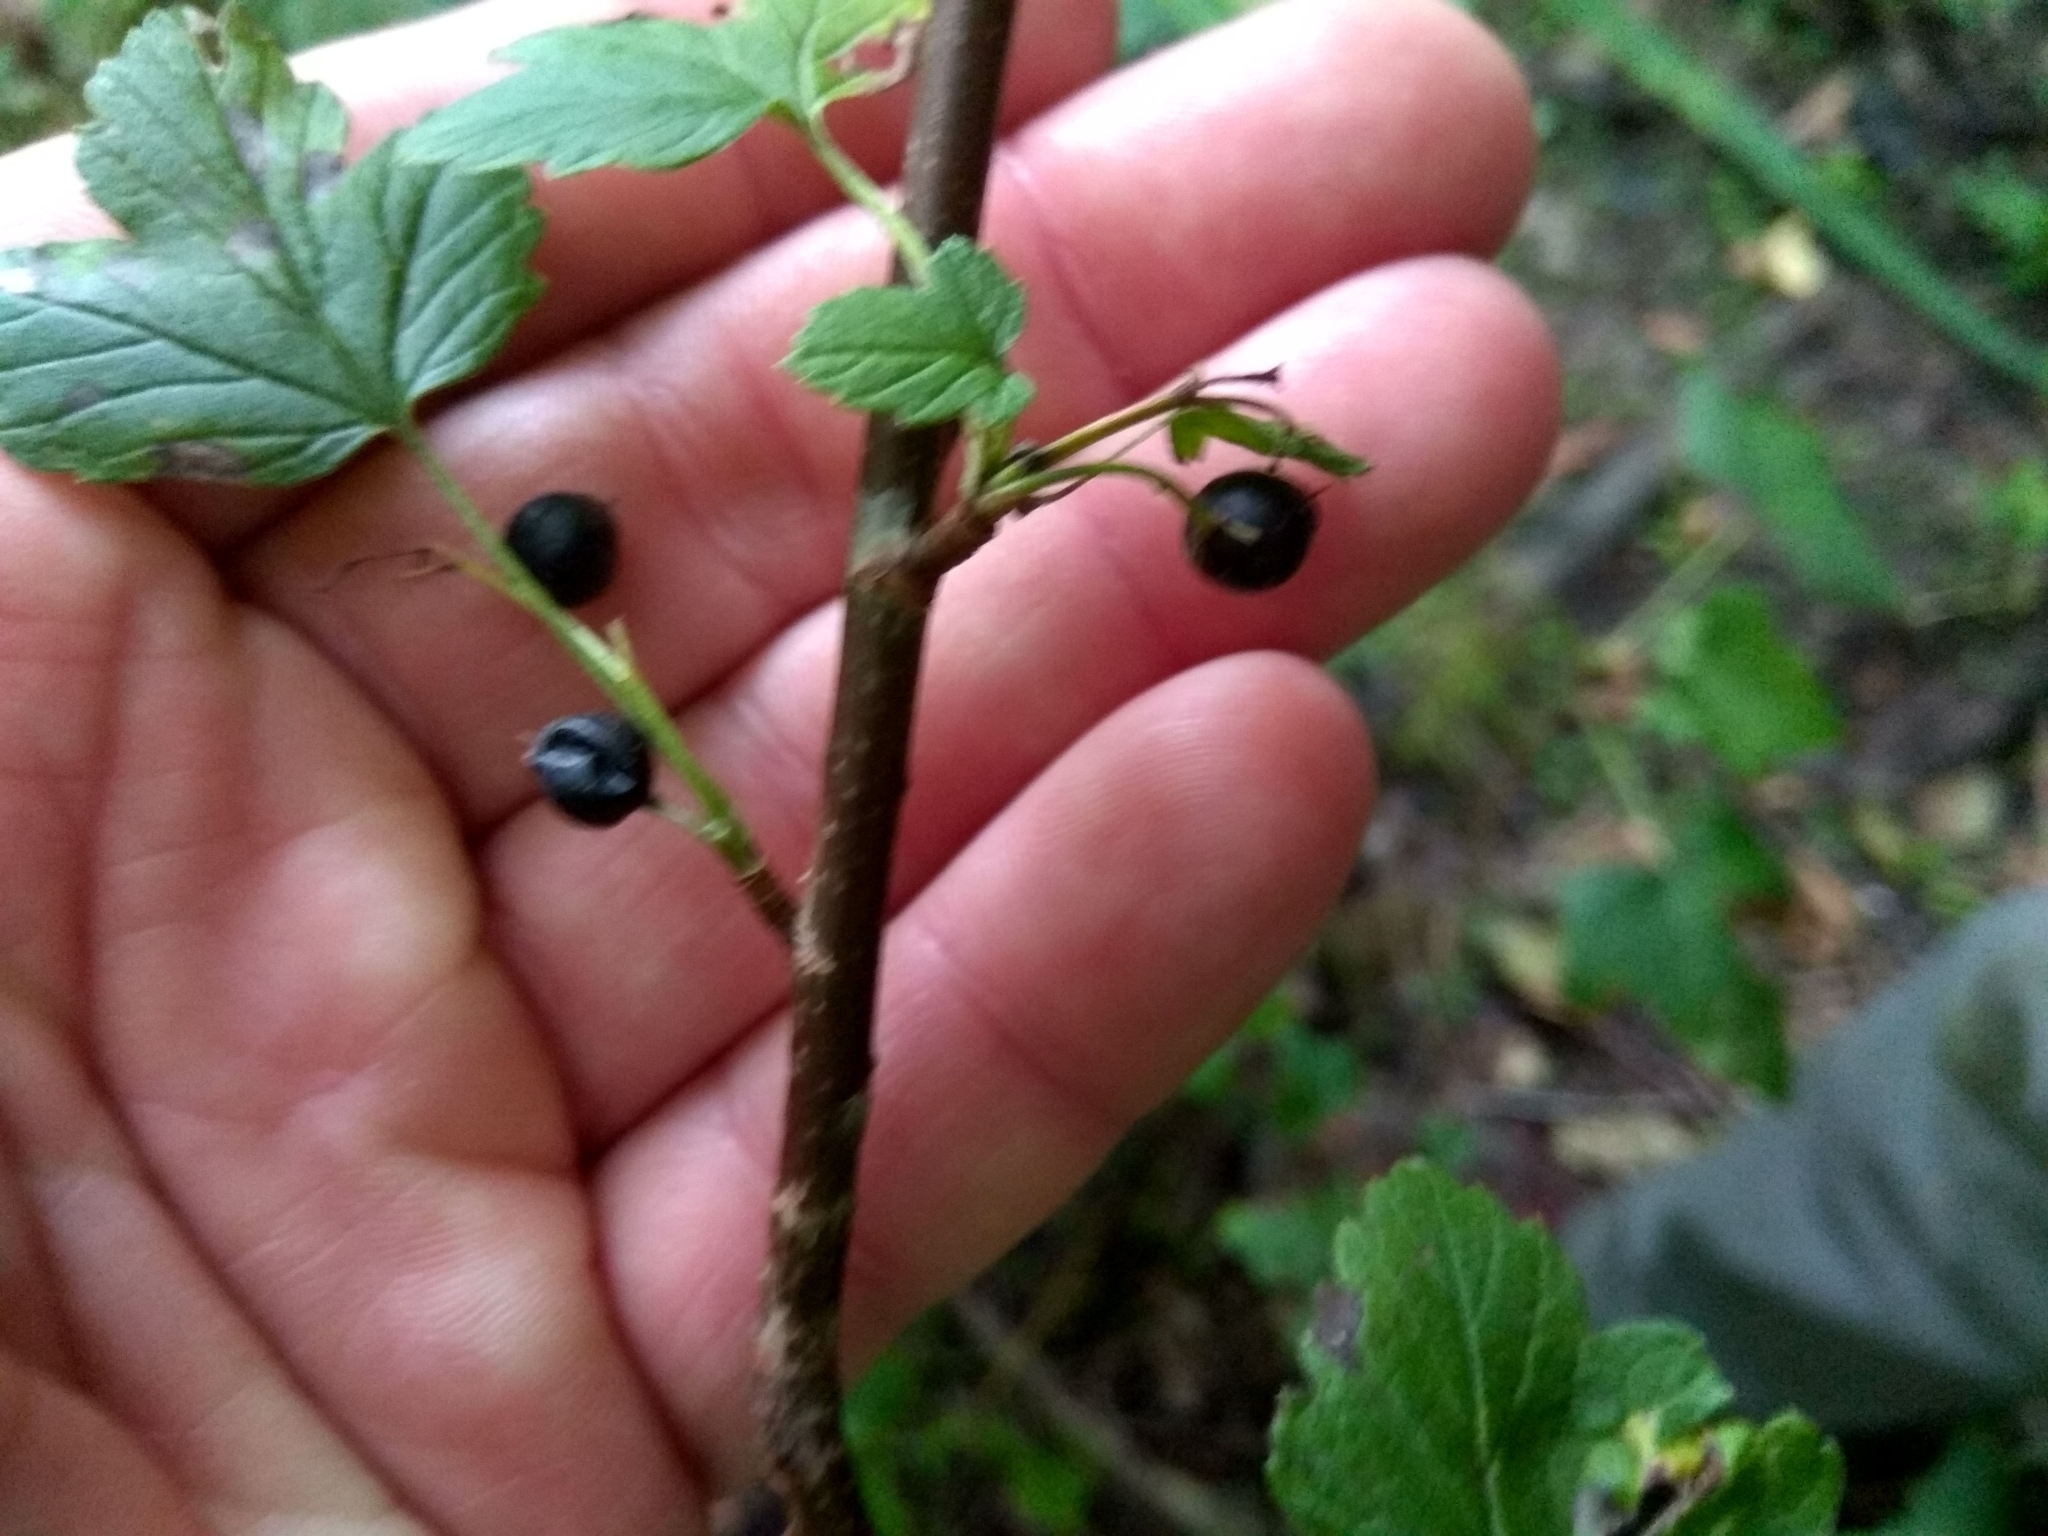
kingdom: Plantae
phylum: Tracheophyta
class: Magnoliopsida
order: Saxifragales
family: Grossulariaceae
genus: Ribes
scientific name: Ribes nigrum
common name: Black currant
